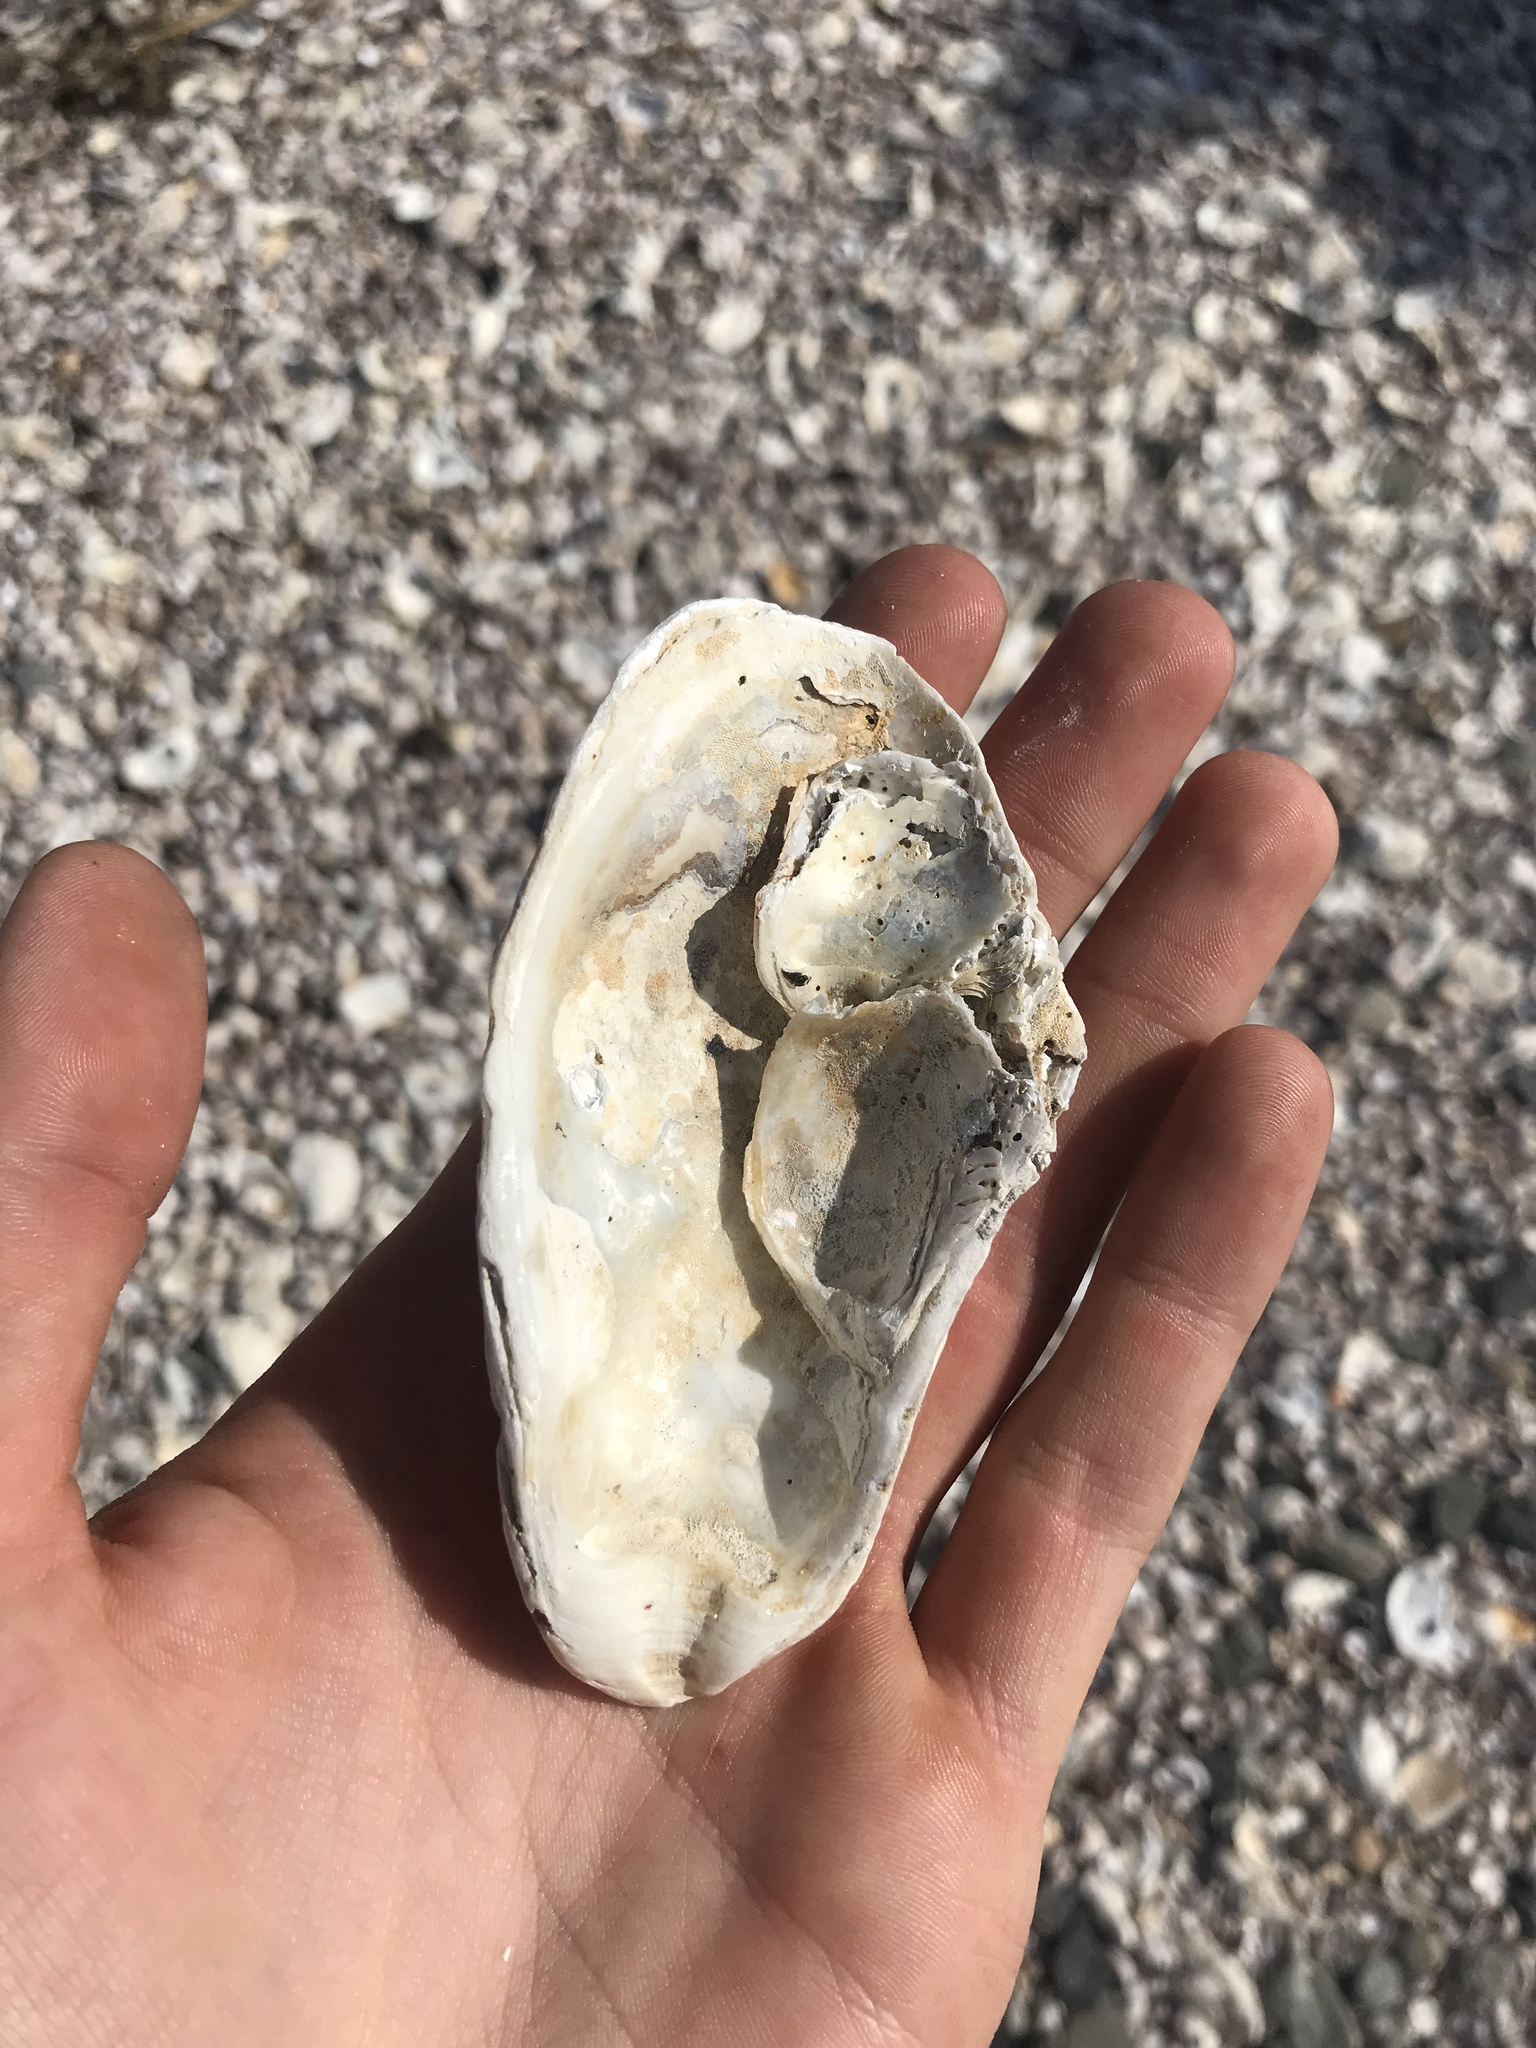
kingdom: Animalia
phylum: Mollusca
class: Bivalvia
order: Ostreida
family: Ostreidae
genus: Crassostrea
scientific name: Crassostrea virginica
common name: American oyster
